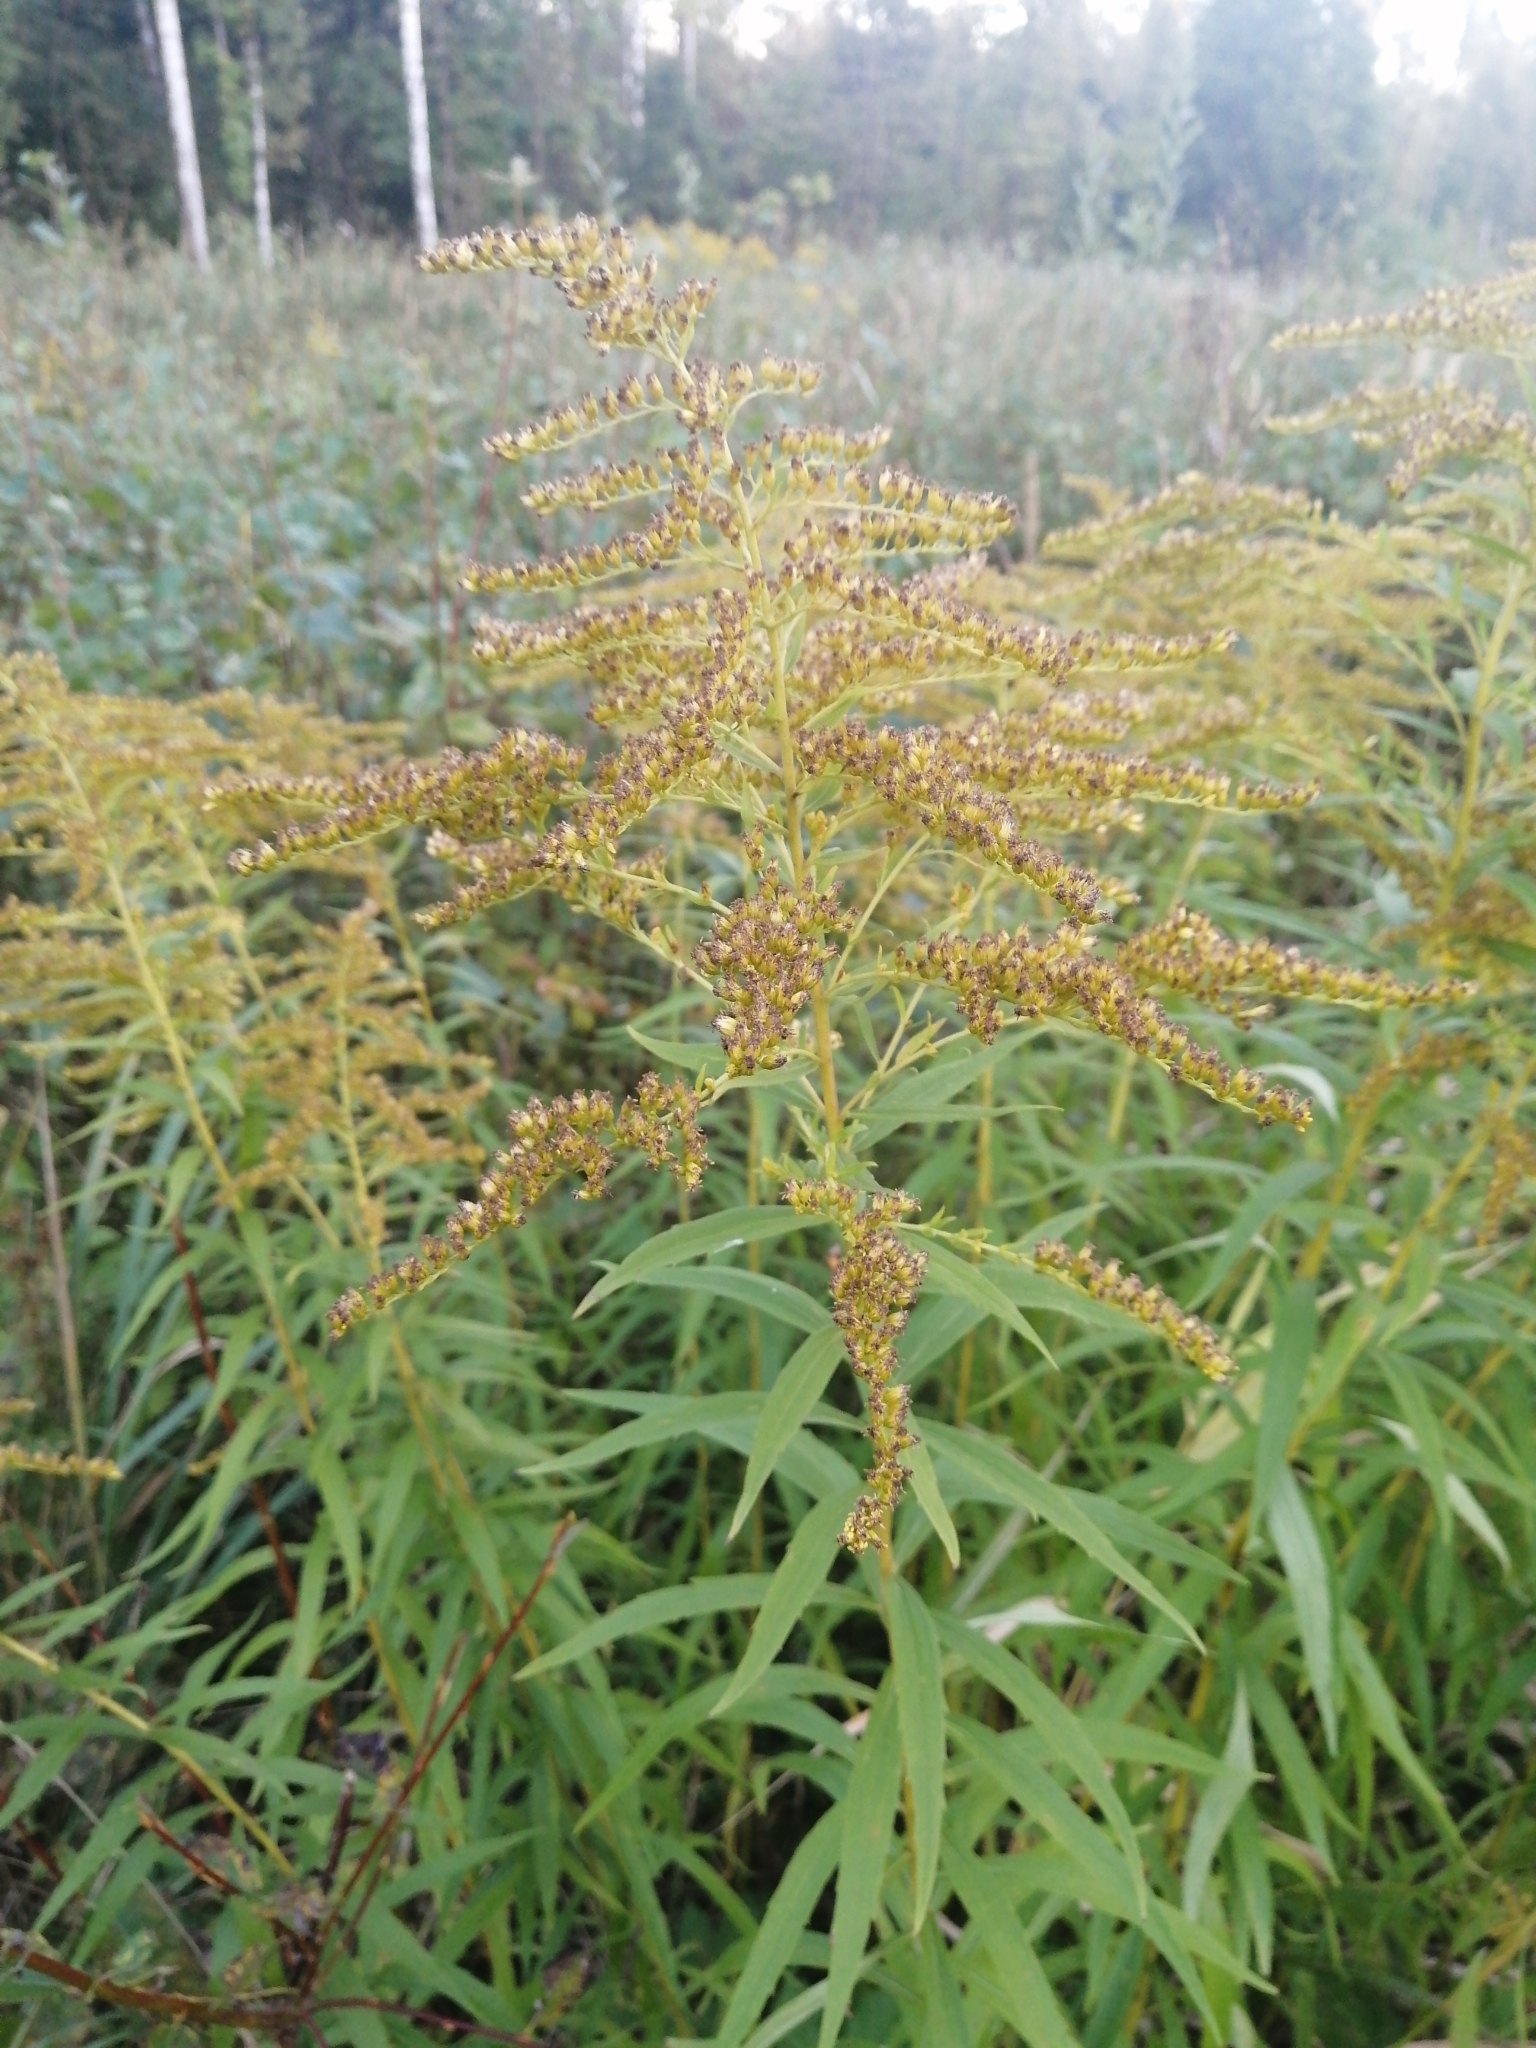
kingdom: Plantae
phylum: Tracheophyta
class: Magnoliopsida
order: Asterales
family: Asteraceae
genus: Solidago
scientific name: Solidago canadensis
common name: Canada goldenrod
